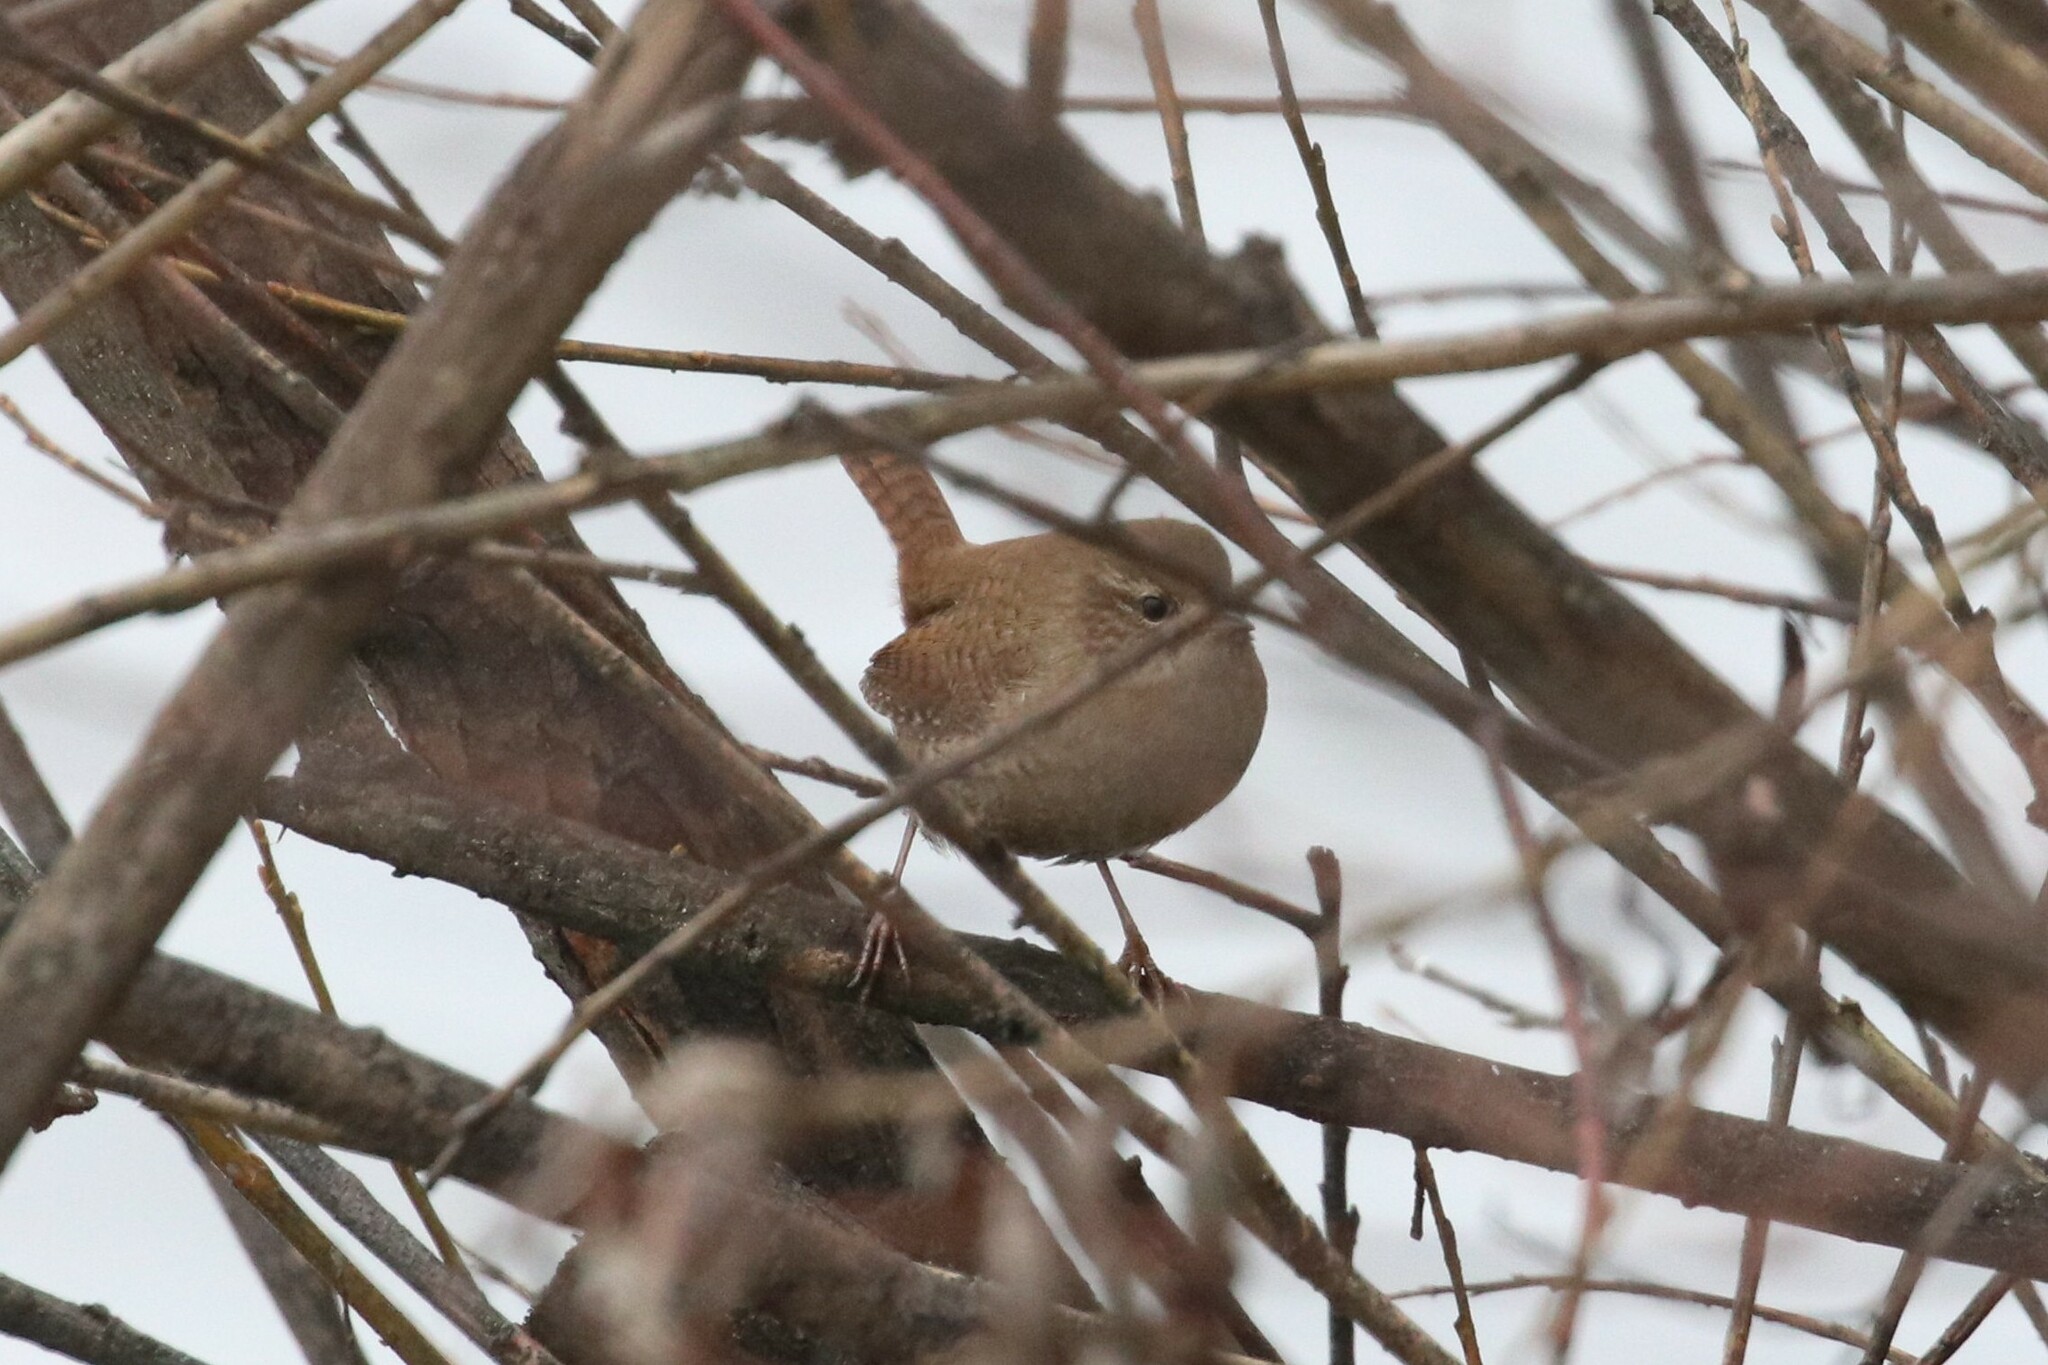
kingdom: Animalia
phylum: Chordata
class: Aves
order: Passeriformes
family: Troglodytidae
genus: Troglodytes
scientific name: Troglodytes troglodytes
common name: Eurasian wren
